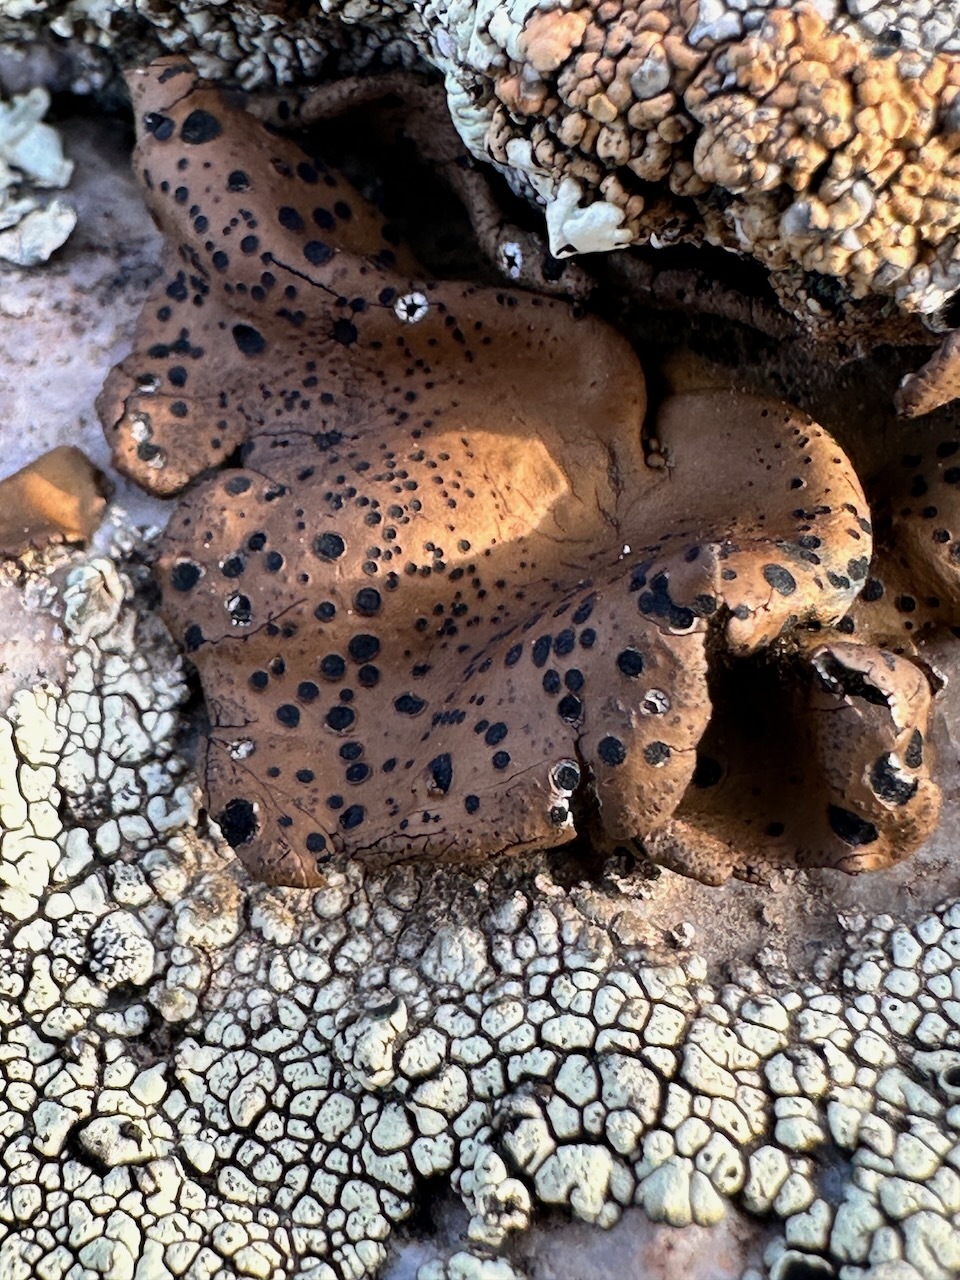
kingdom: Fungi
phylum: Ascomycota
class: Lecanoromycetes
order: Umbilicariales
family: Umbilicariaceae
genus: Umbilicaria
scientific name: Umbilicaria phaea
